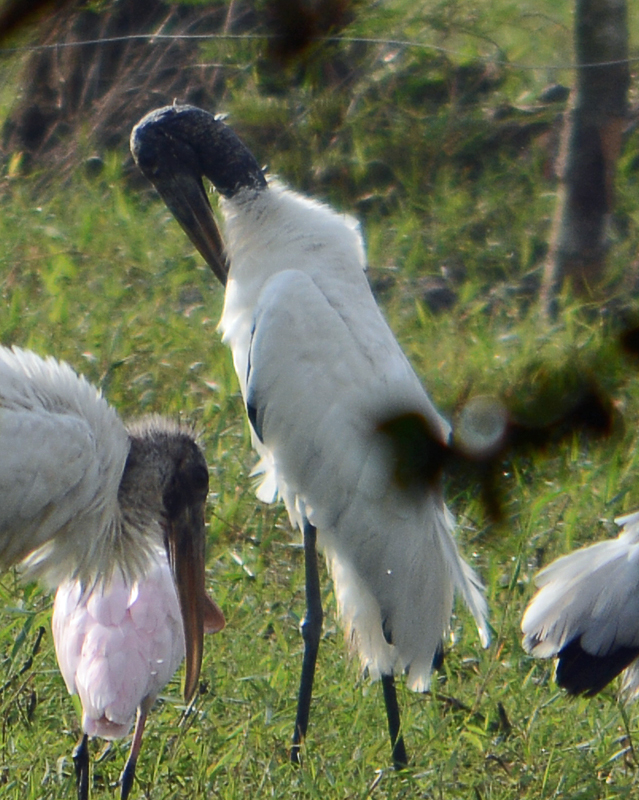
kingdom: Animalia
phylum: Chordata
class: Aves
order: Ciconiiformes
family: Ciconiidae
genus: Mycteria
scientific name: Mycteria americana
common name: Wood stork
